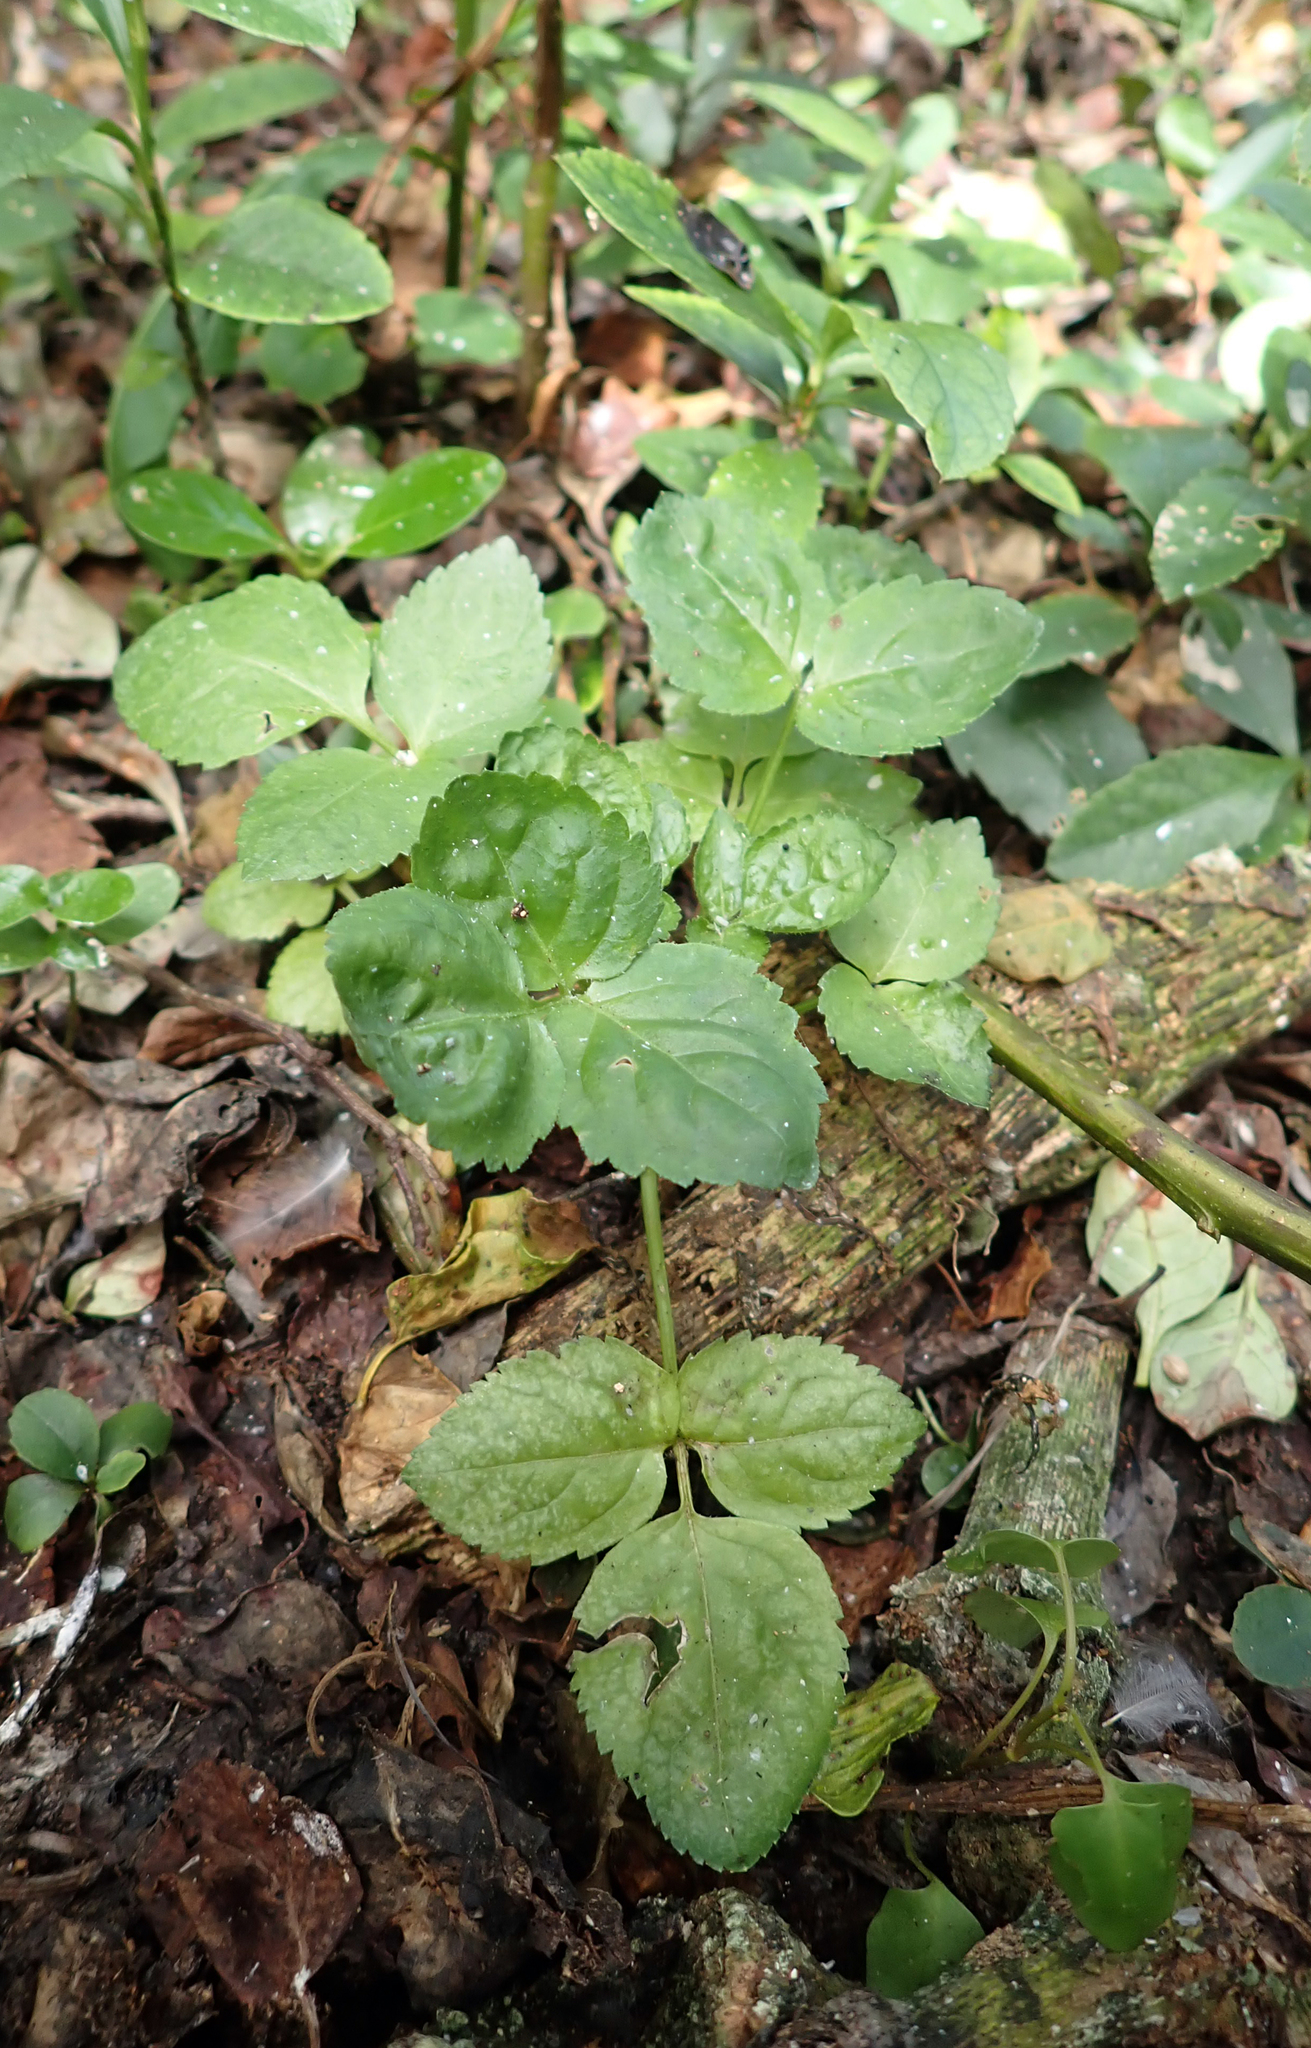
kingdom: Plantae
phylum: Tracheophyta
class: Magnoliopsida
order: Dipsacales
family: Viburnaceae
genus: Sambucus
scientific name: Sambucus nigra
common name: Elder
